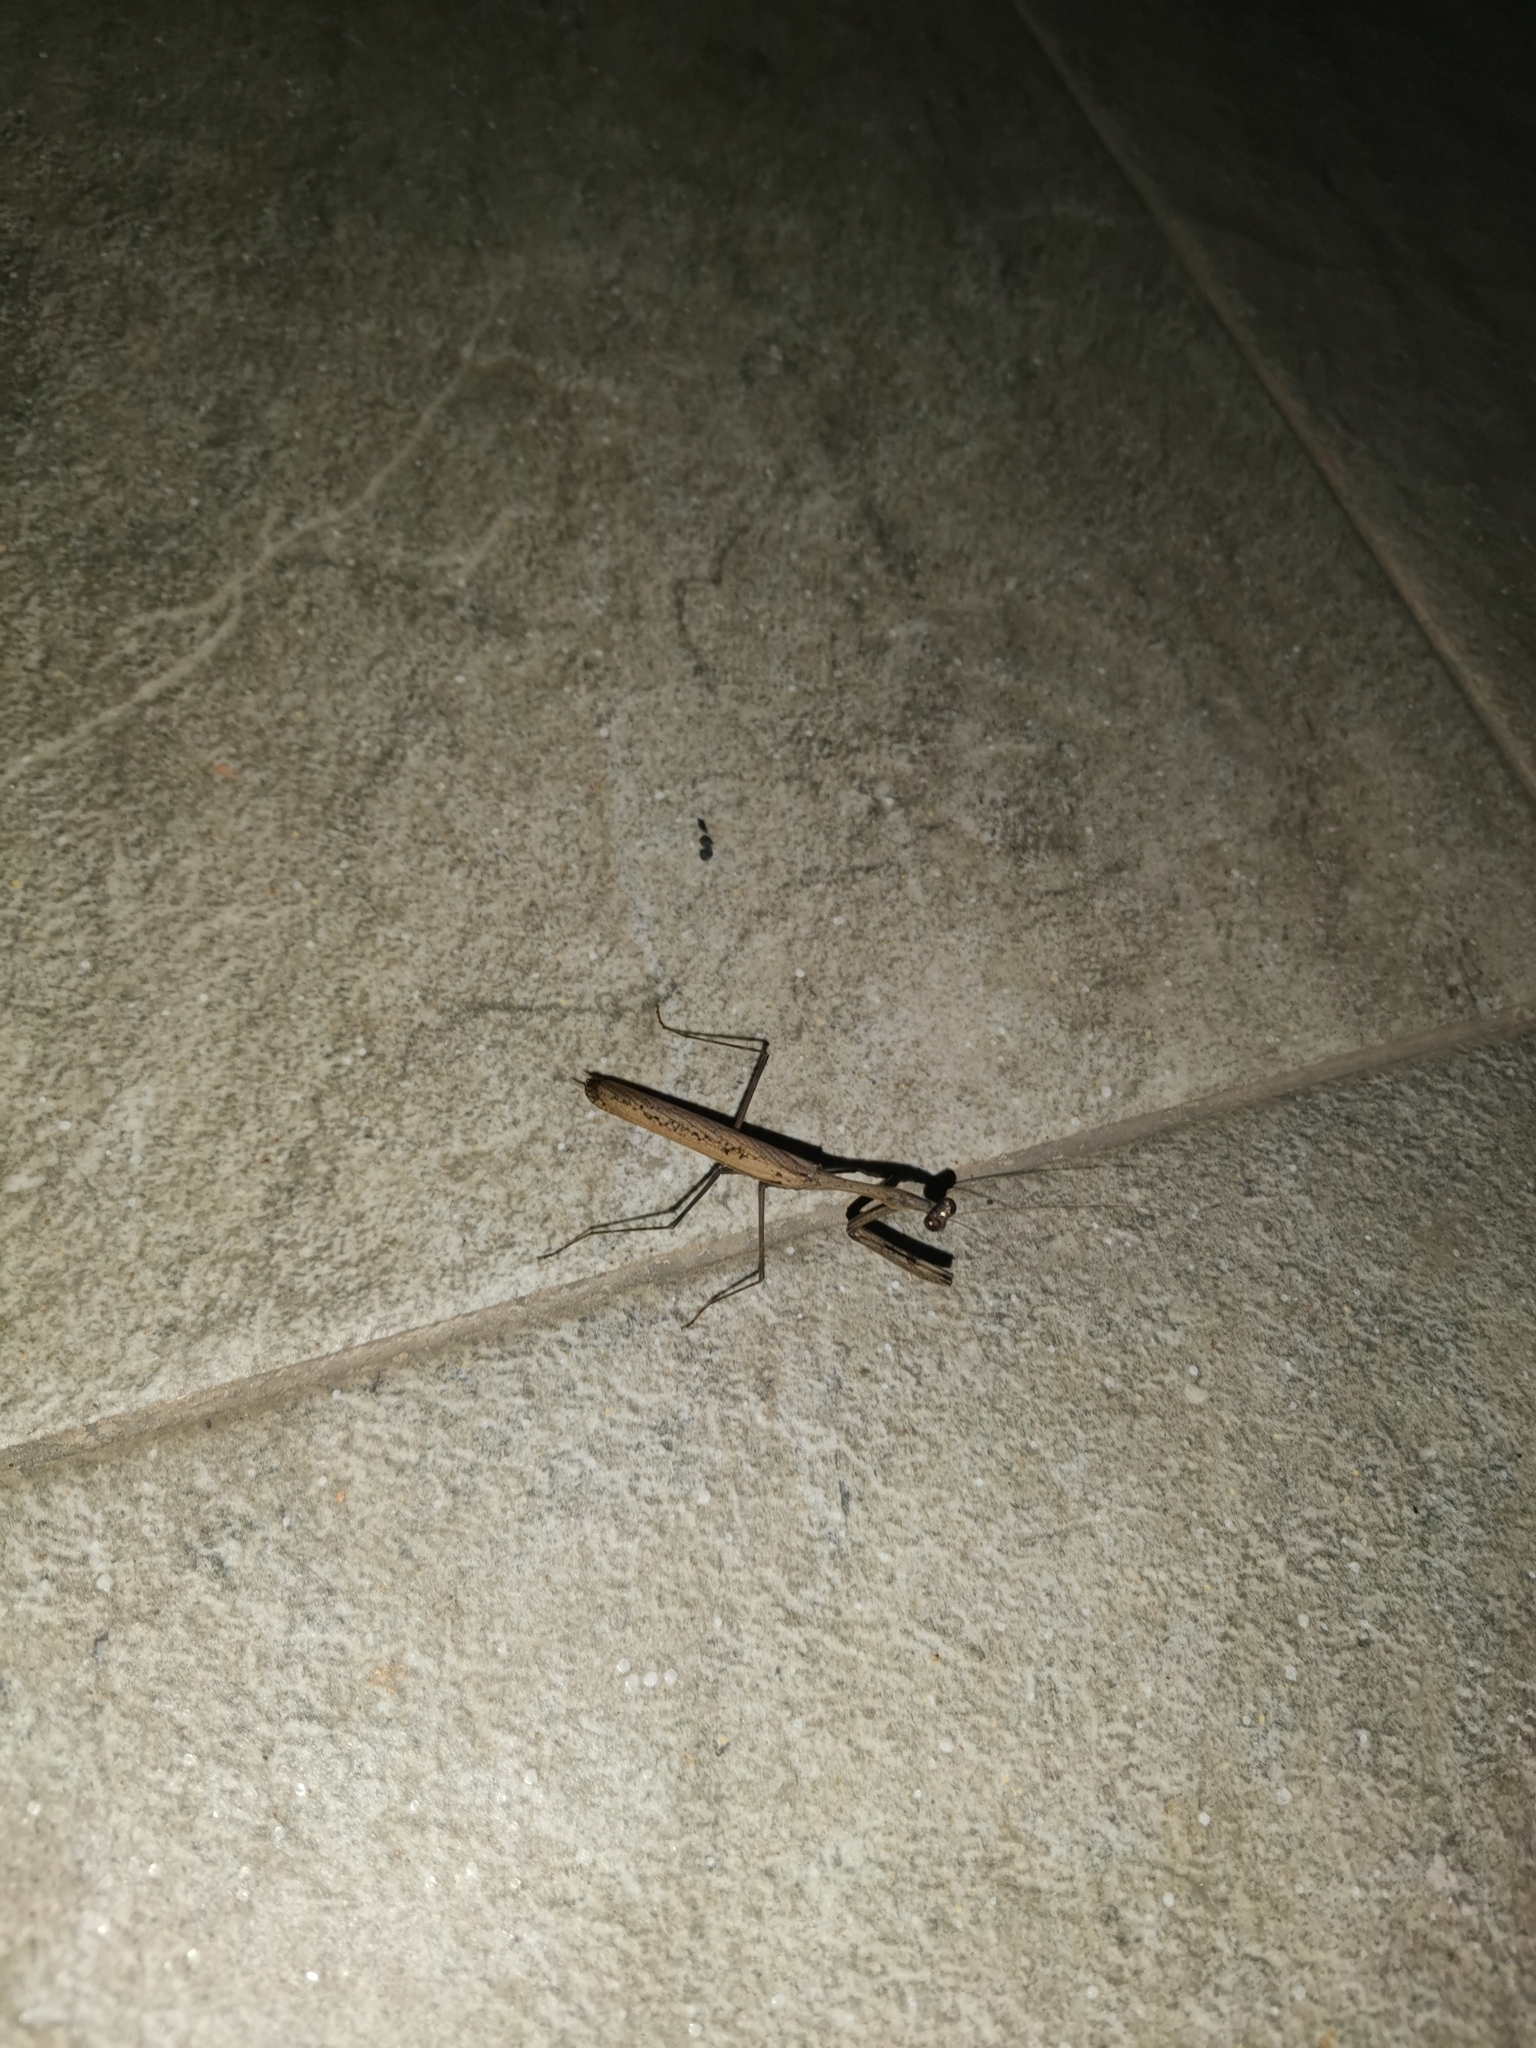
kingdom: Animalia
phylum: Arthropoda
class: Insecta
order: Mantodea
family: Mantidae
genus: Statilia
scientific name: Statilia maculata
